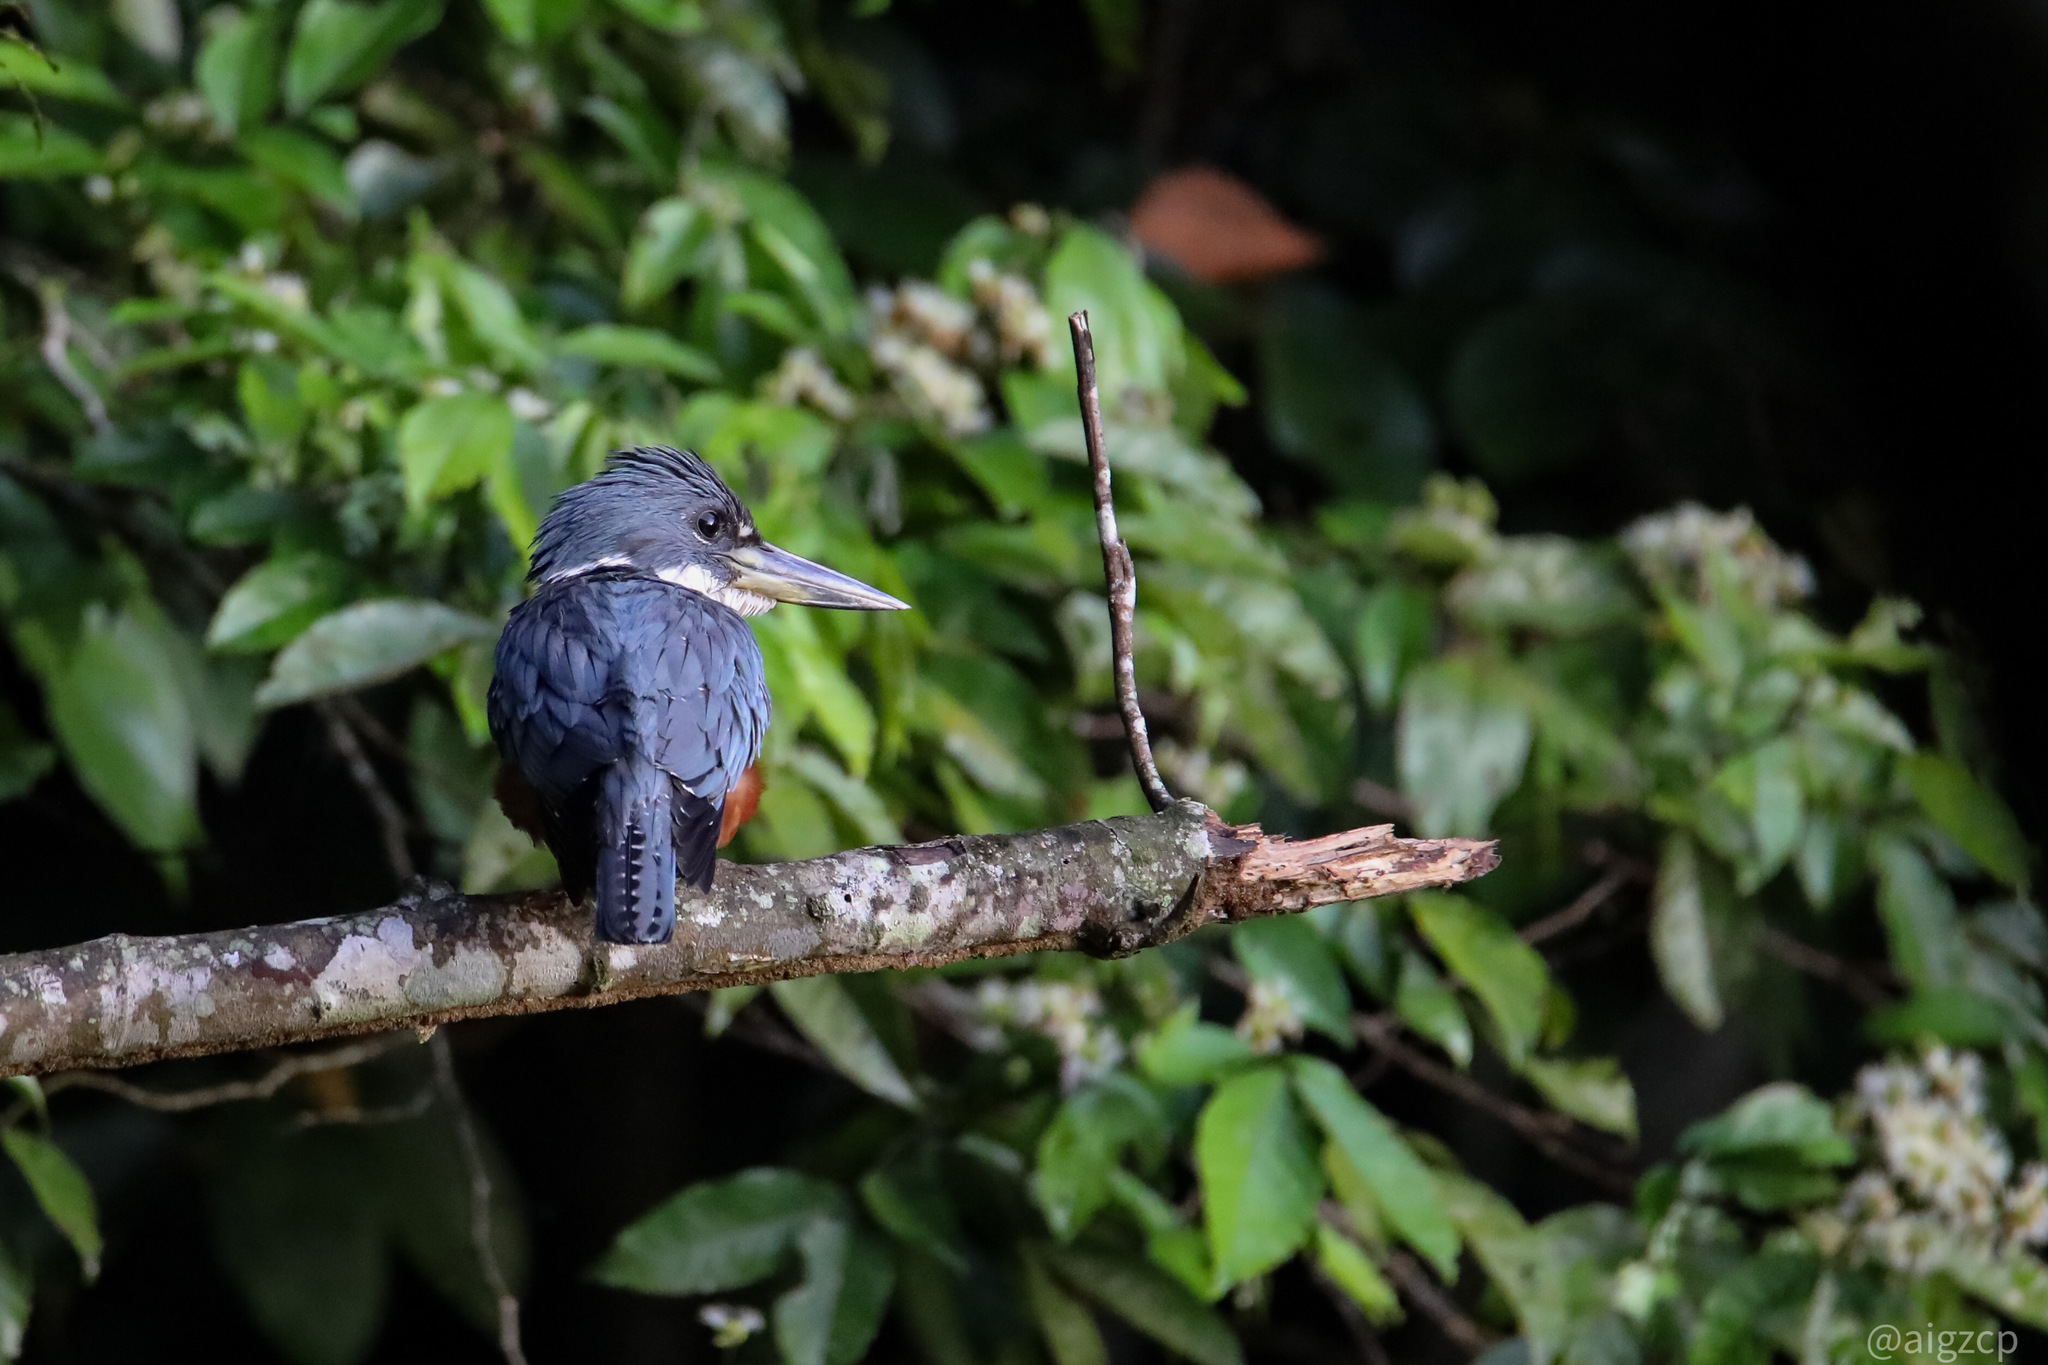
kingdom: Animalia
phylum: Chordata
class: Aves
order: Coraciiformes
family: Alcedinidae
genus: Megaceryle
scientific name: Megaceryle torquata
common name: Ringed kingfisher
